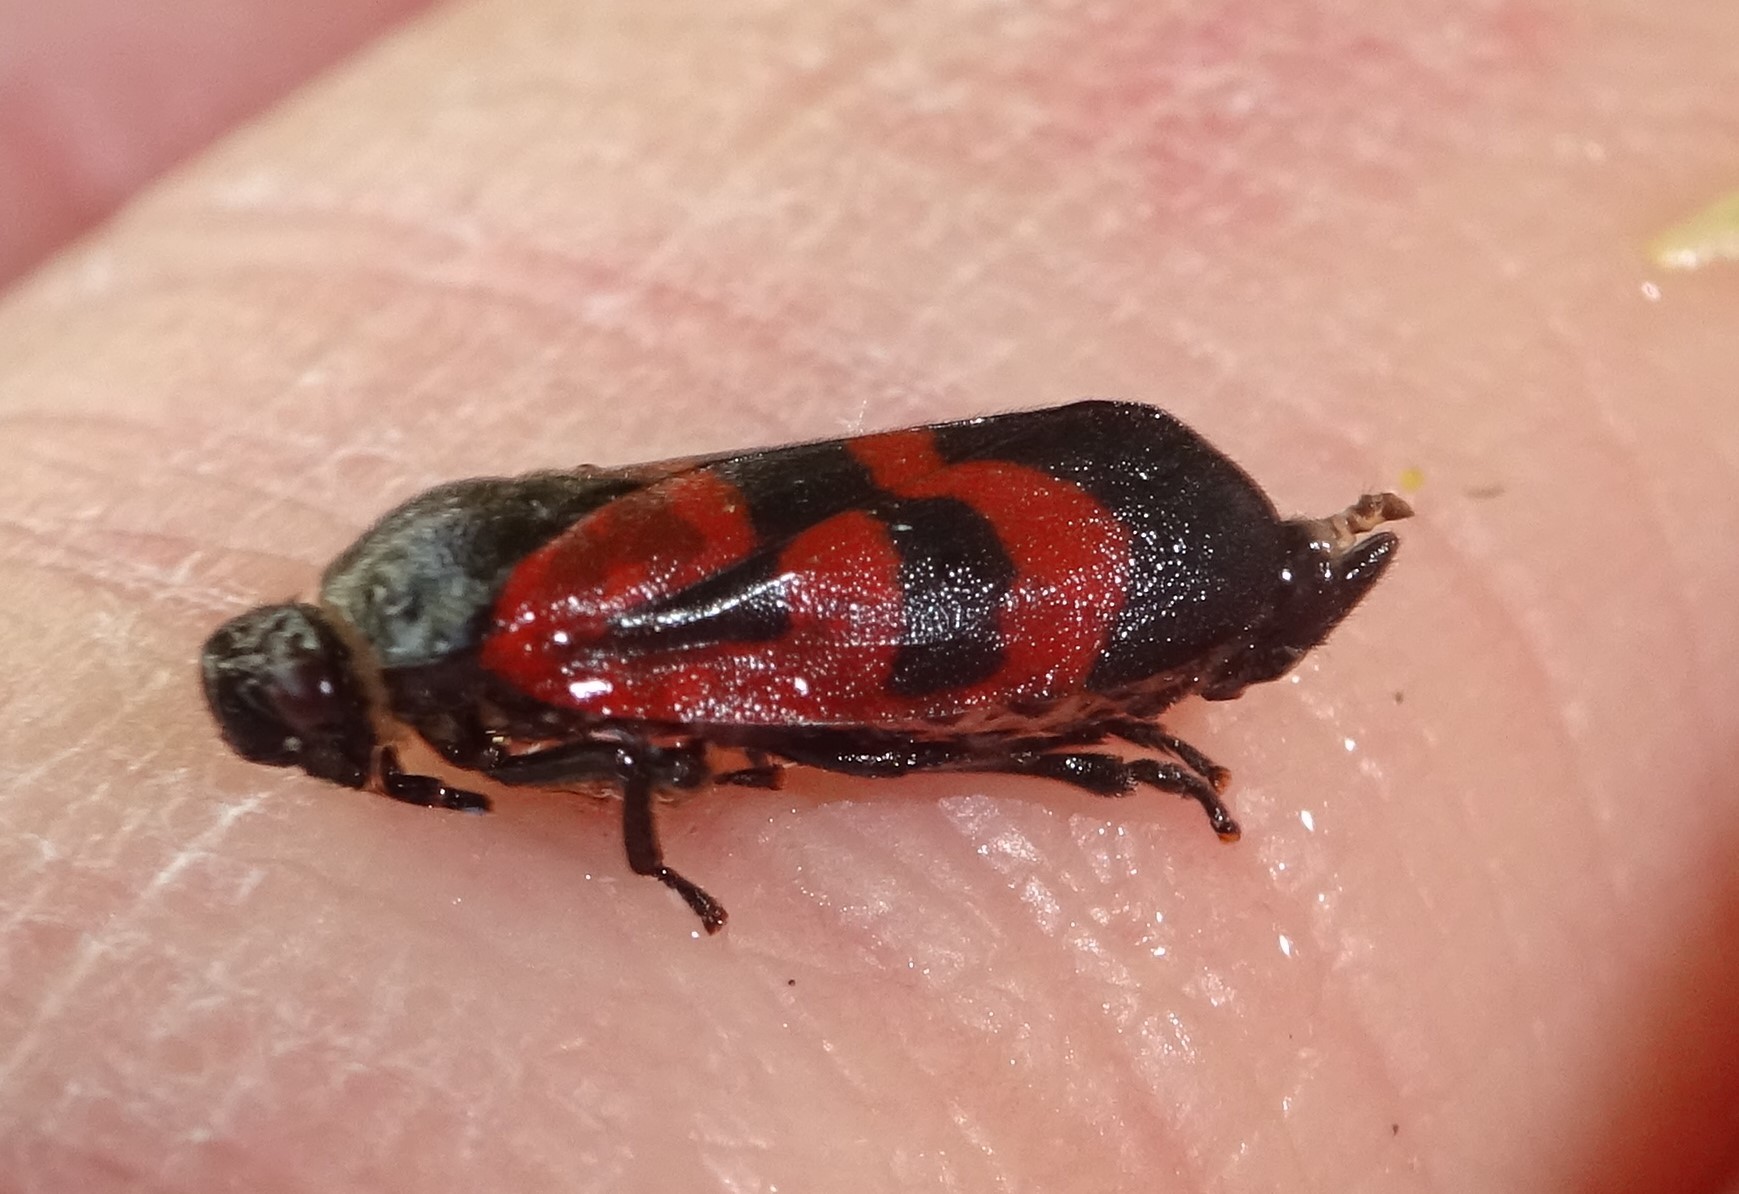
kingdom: Animalia
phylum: Arthropoda
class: Insecta
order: Hemiptera
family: Cercopidae
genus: Haematoloma
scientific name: Haematoloma dorsata
